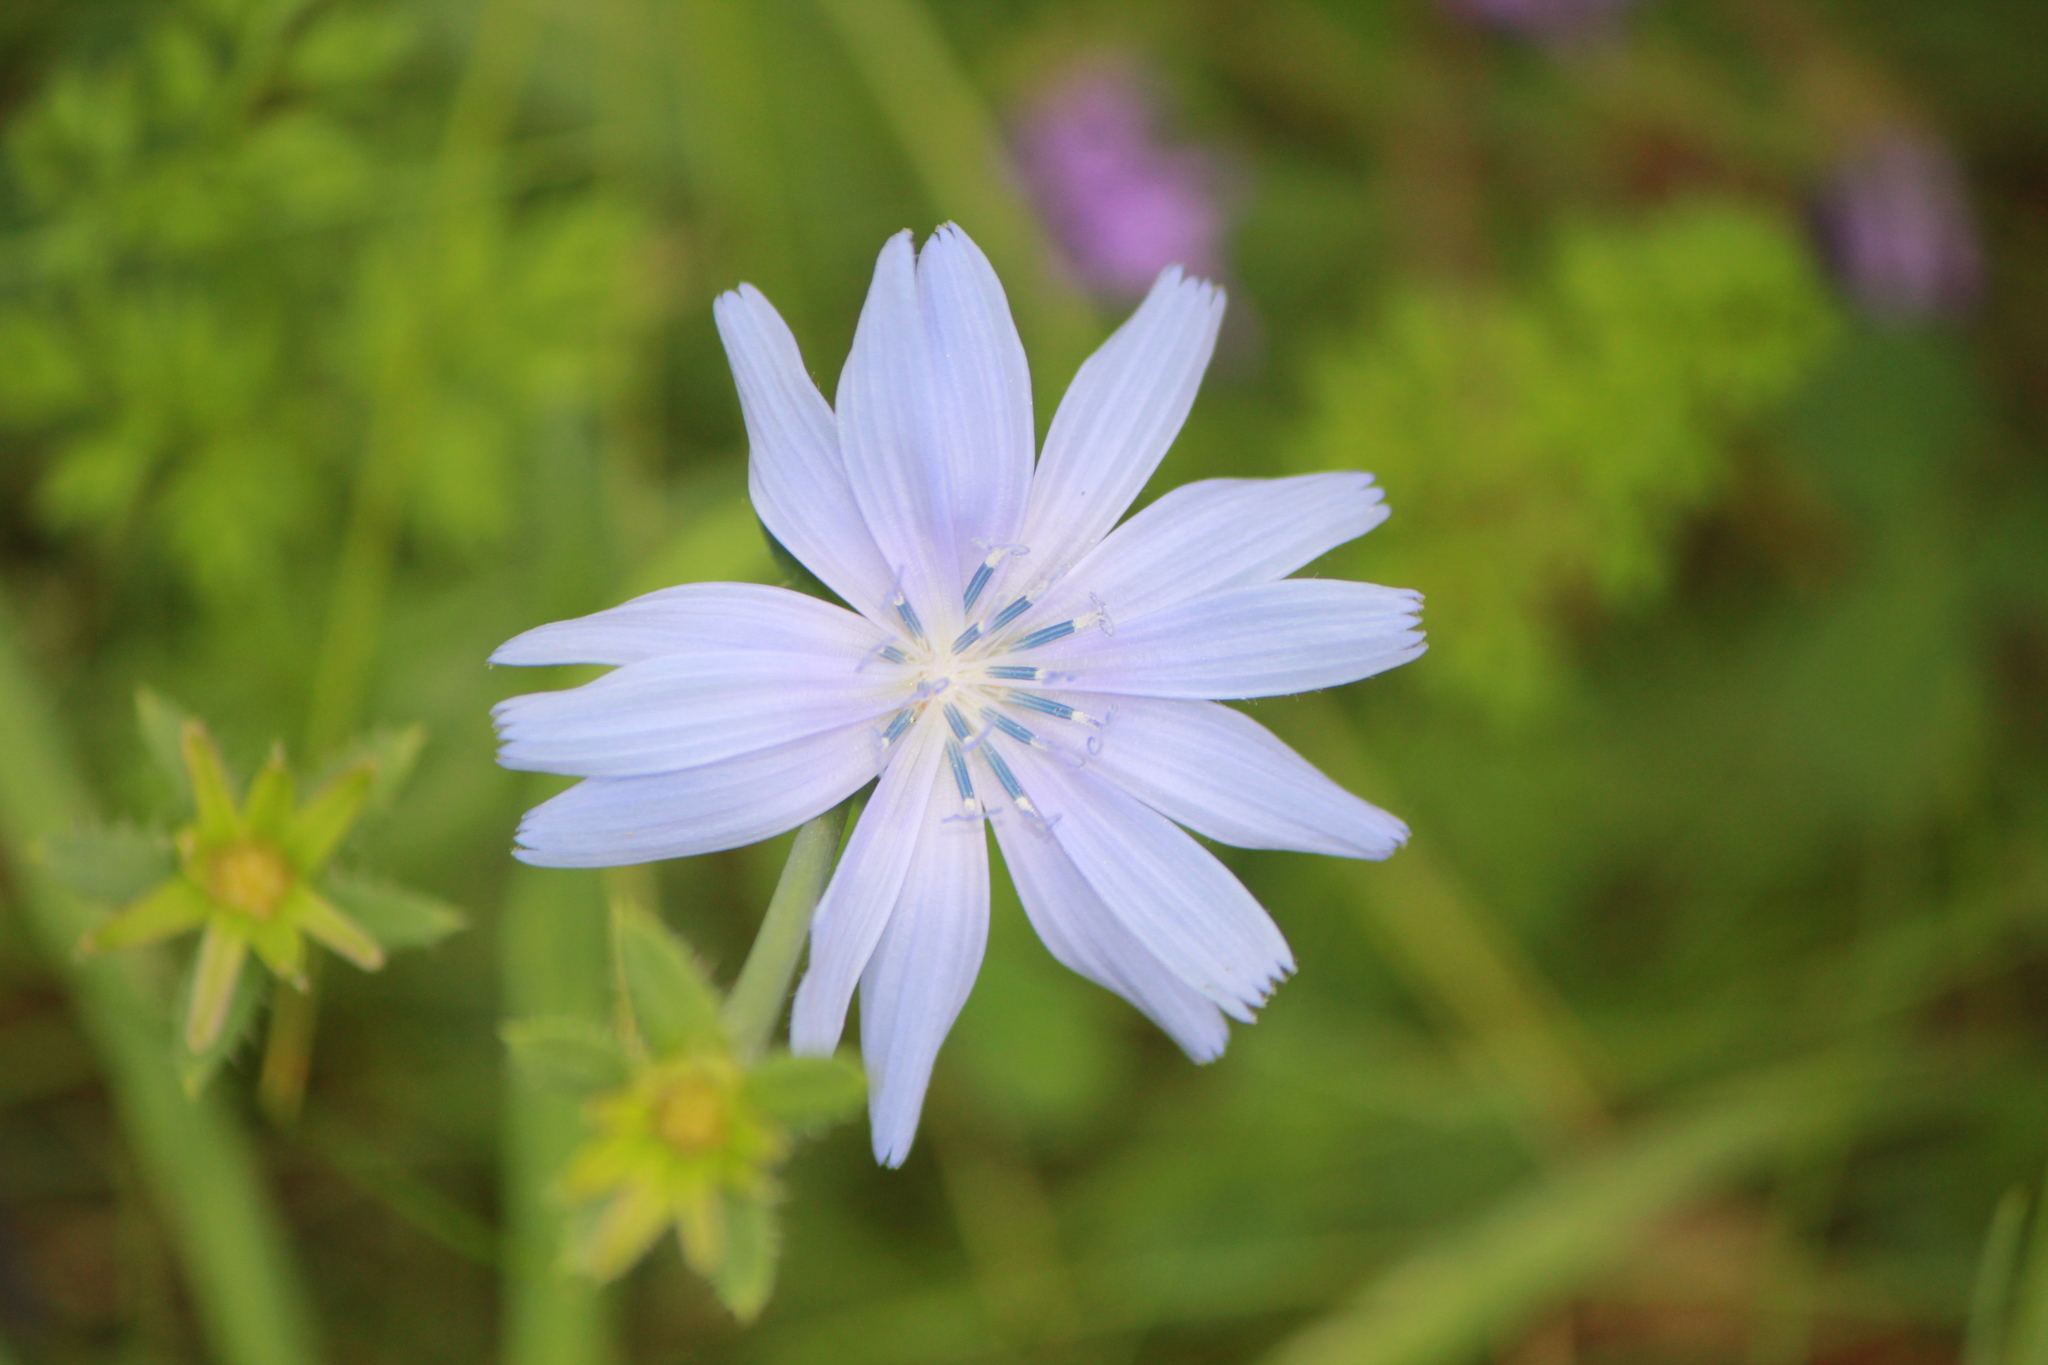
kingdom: Plantae
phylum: Tracheophyta
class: Magnoliopsida
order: Asterales
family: Asteraceae
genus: Cichorium
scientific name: Cichorium intybus
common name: Chicory
